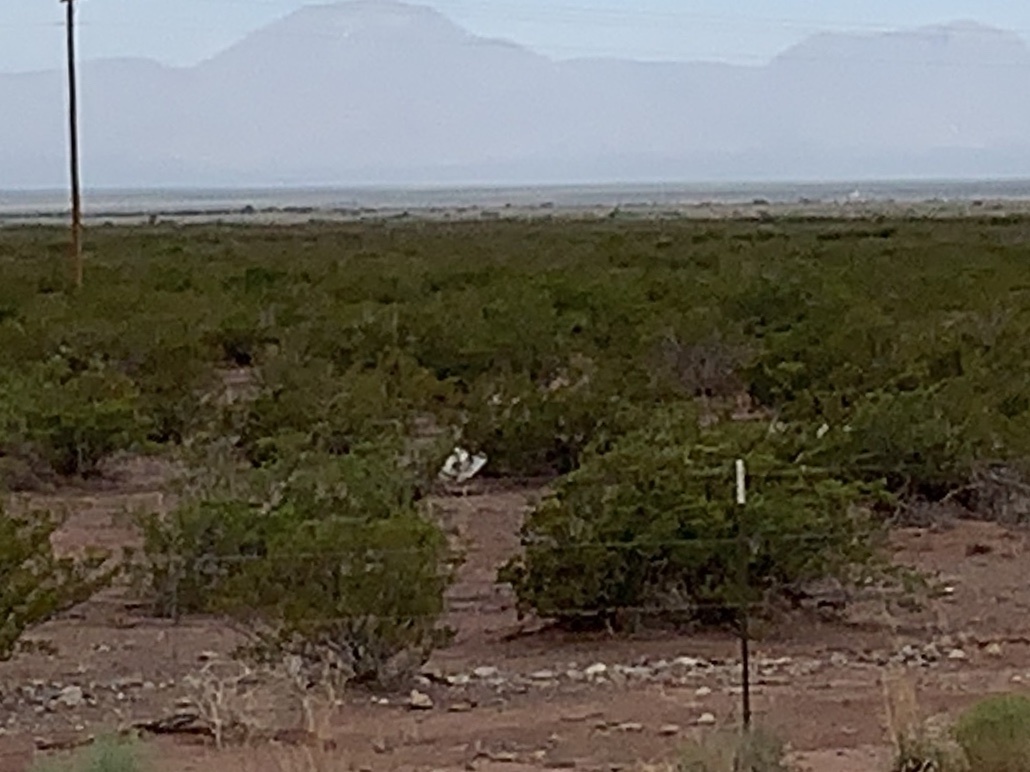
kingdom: Plantae
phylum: Tracheophyta
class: Magnoliopsida
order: Zygophyllales
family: Zygophyllaceae
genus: Larrea
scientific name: Larrea tridentata
